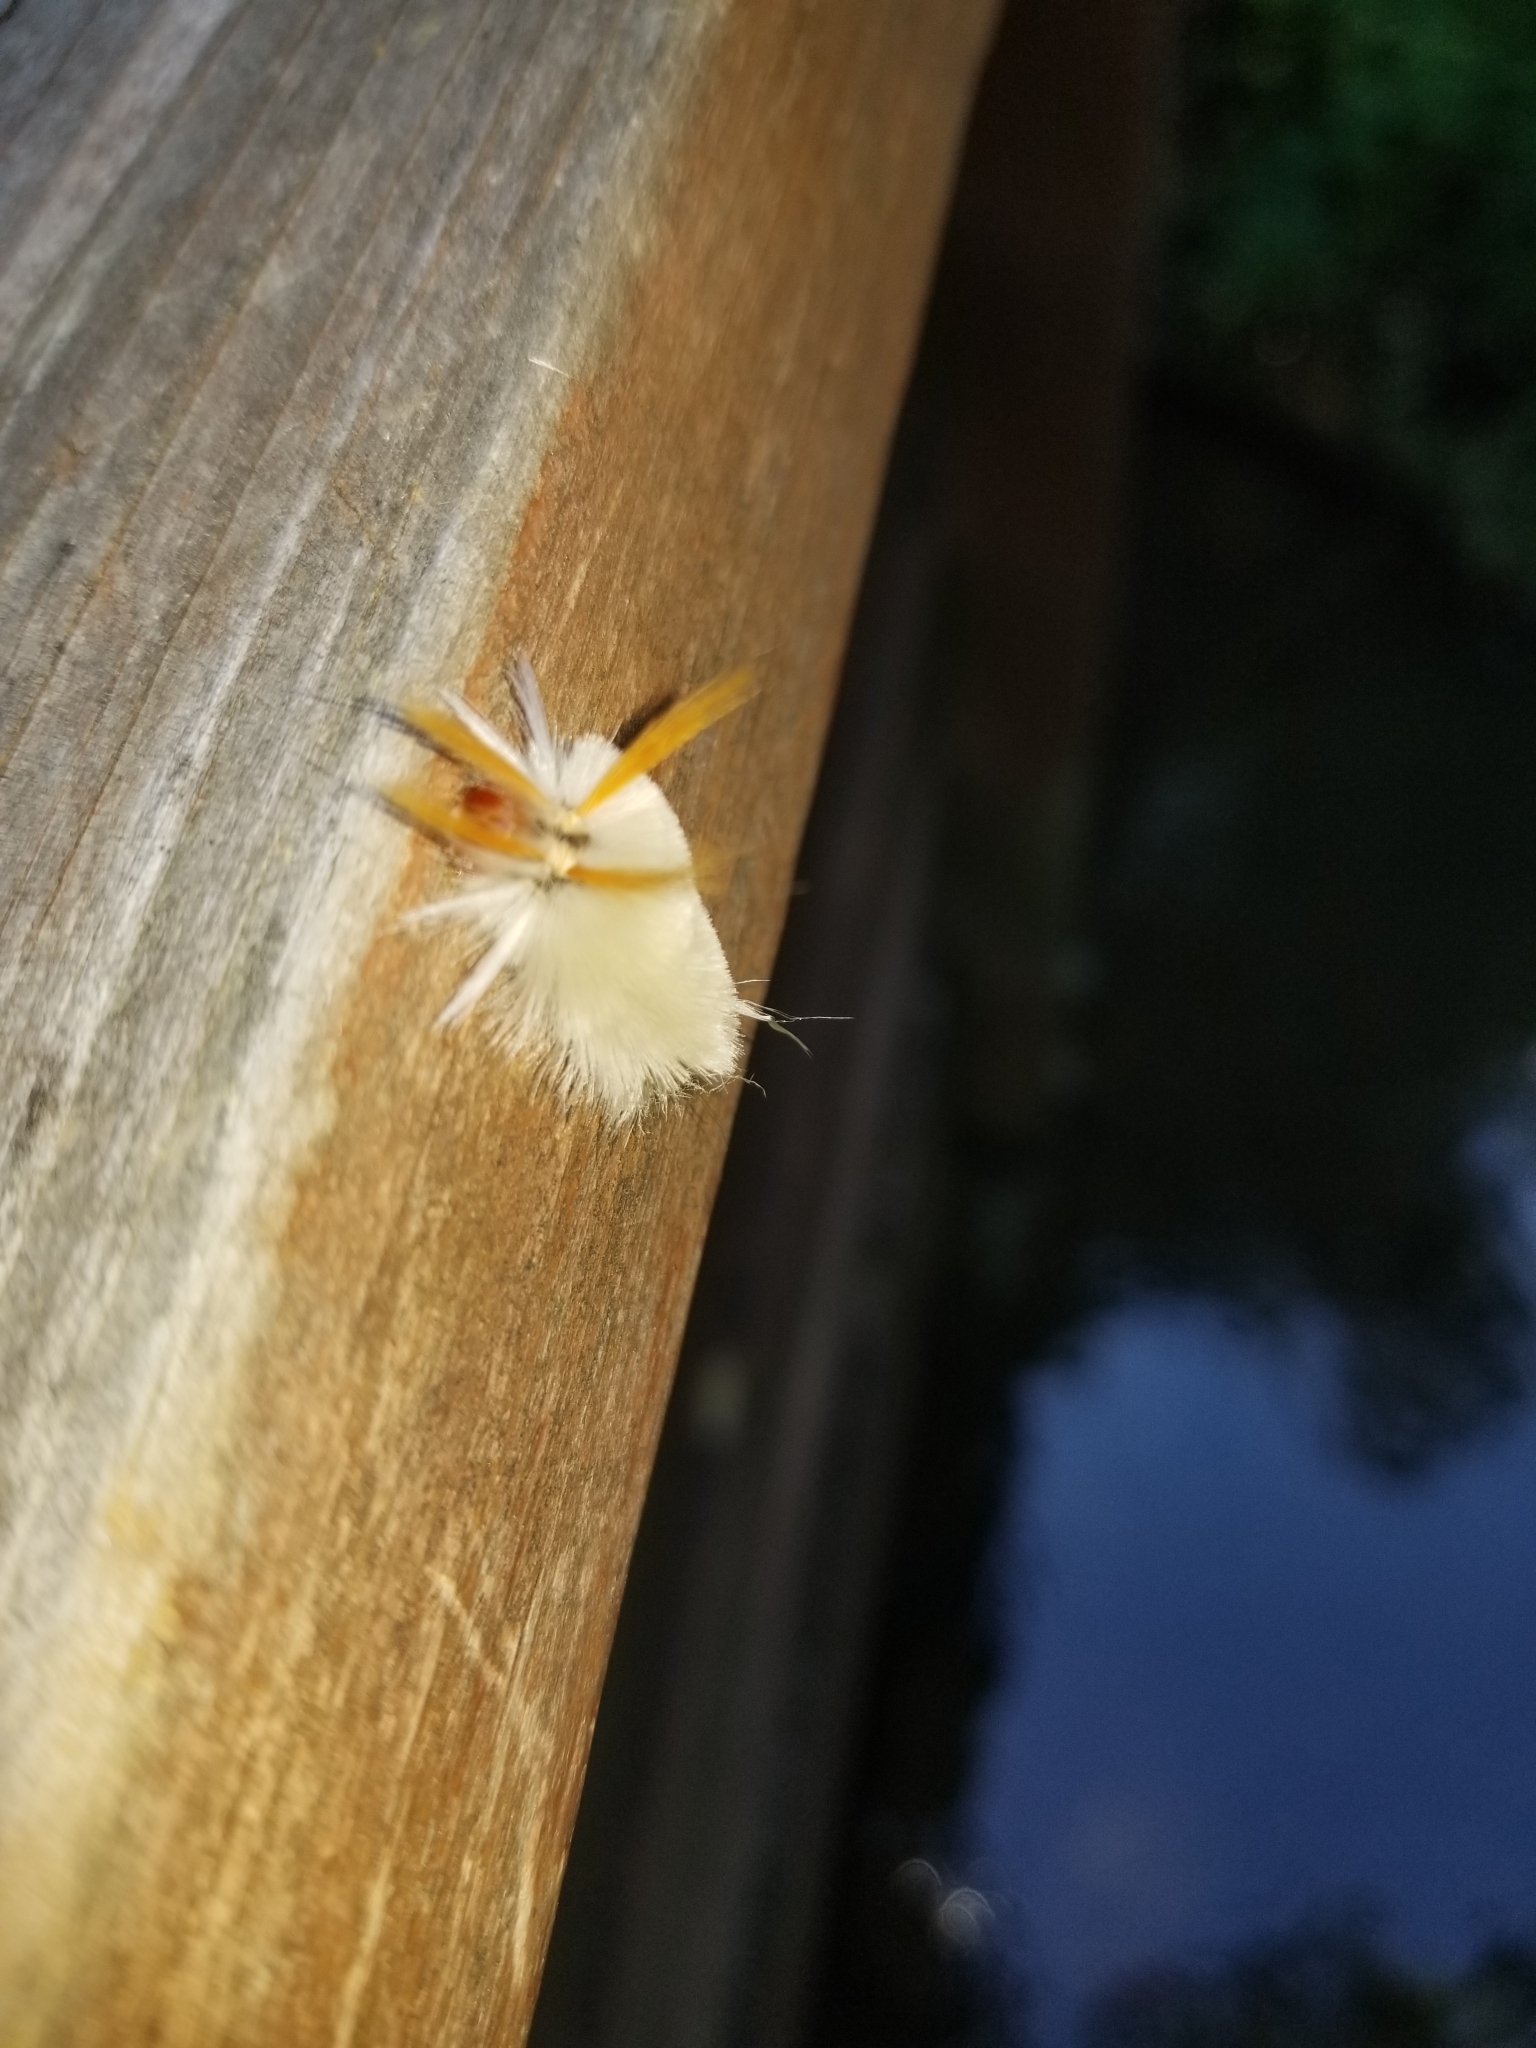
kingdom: Animalia
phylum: Arthropoda
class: Insecta
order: Lepidoptera
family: Erebidae
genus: Halysidota
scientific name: Halysidota harrisii
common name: Sycamore tussock moth
